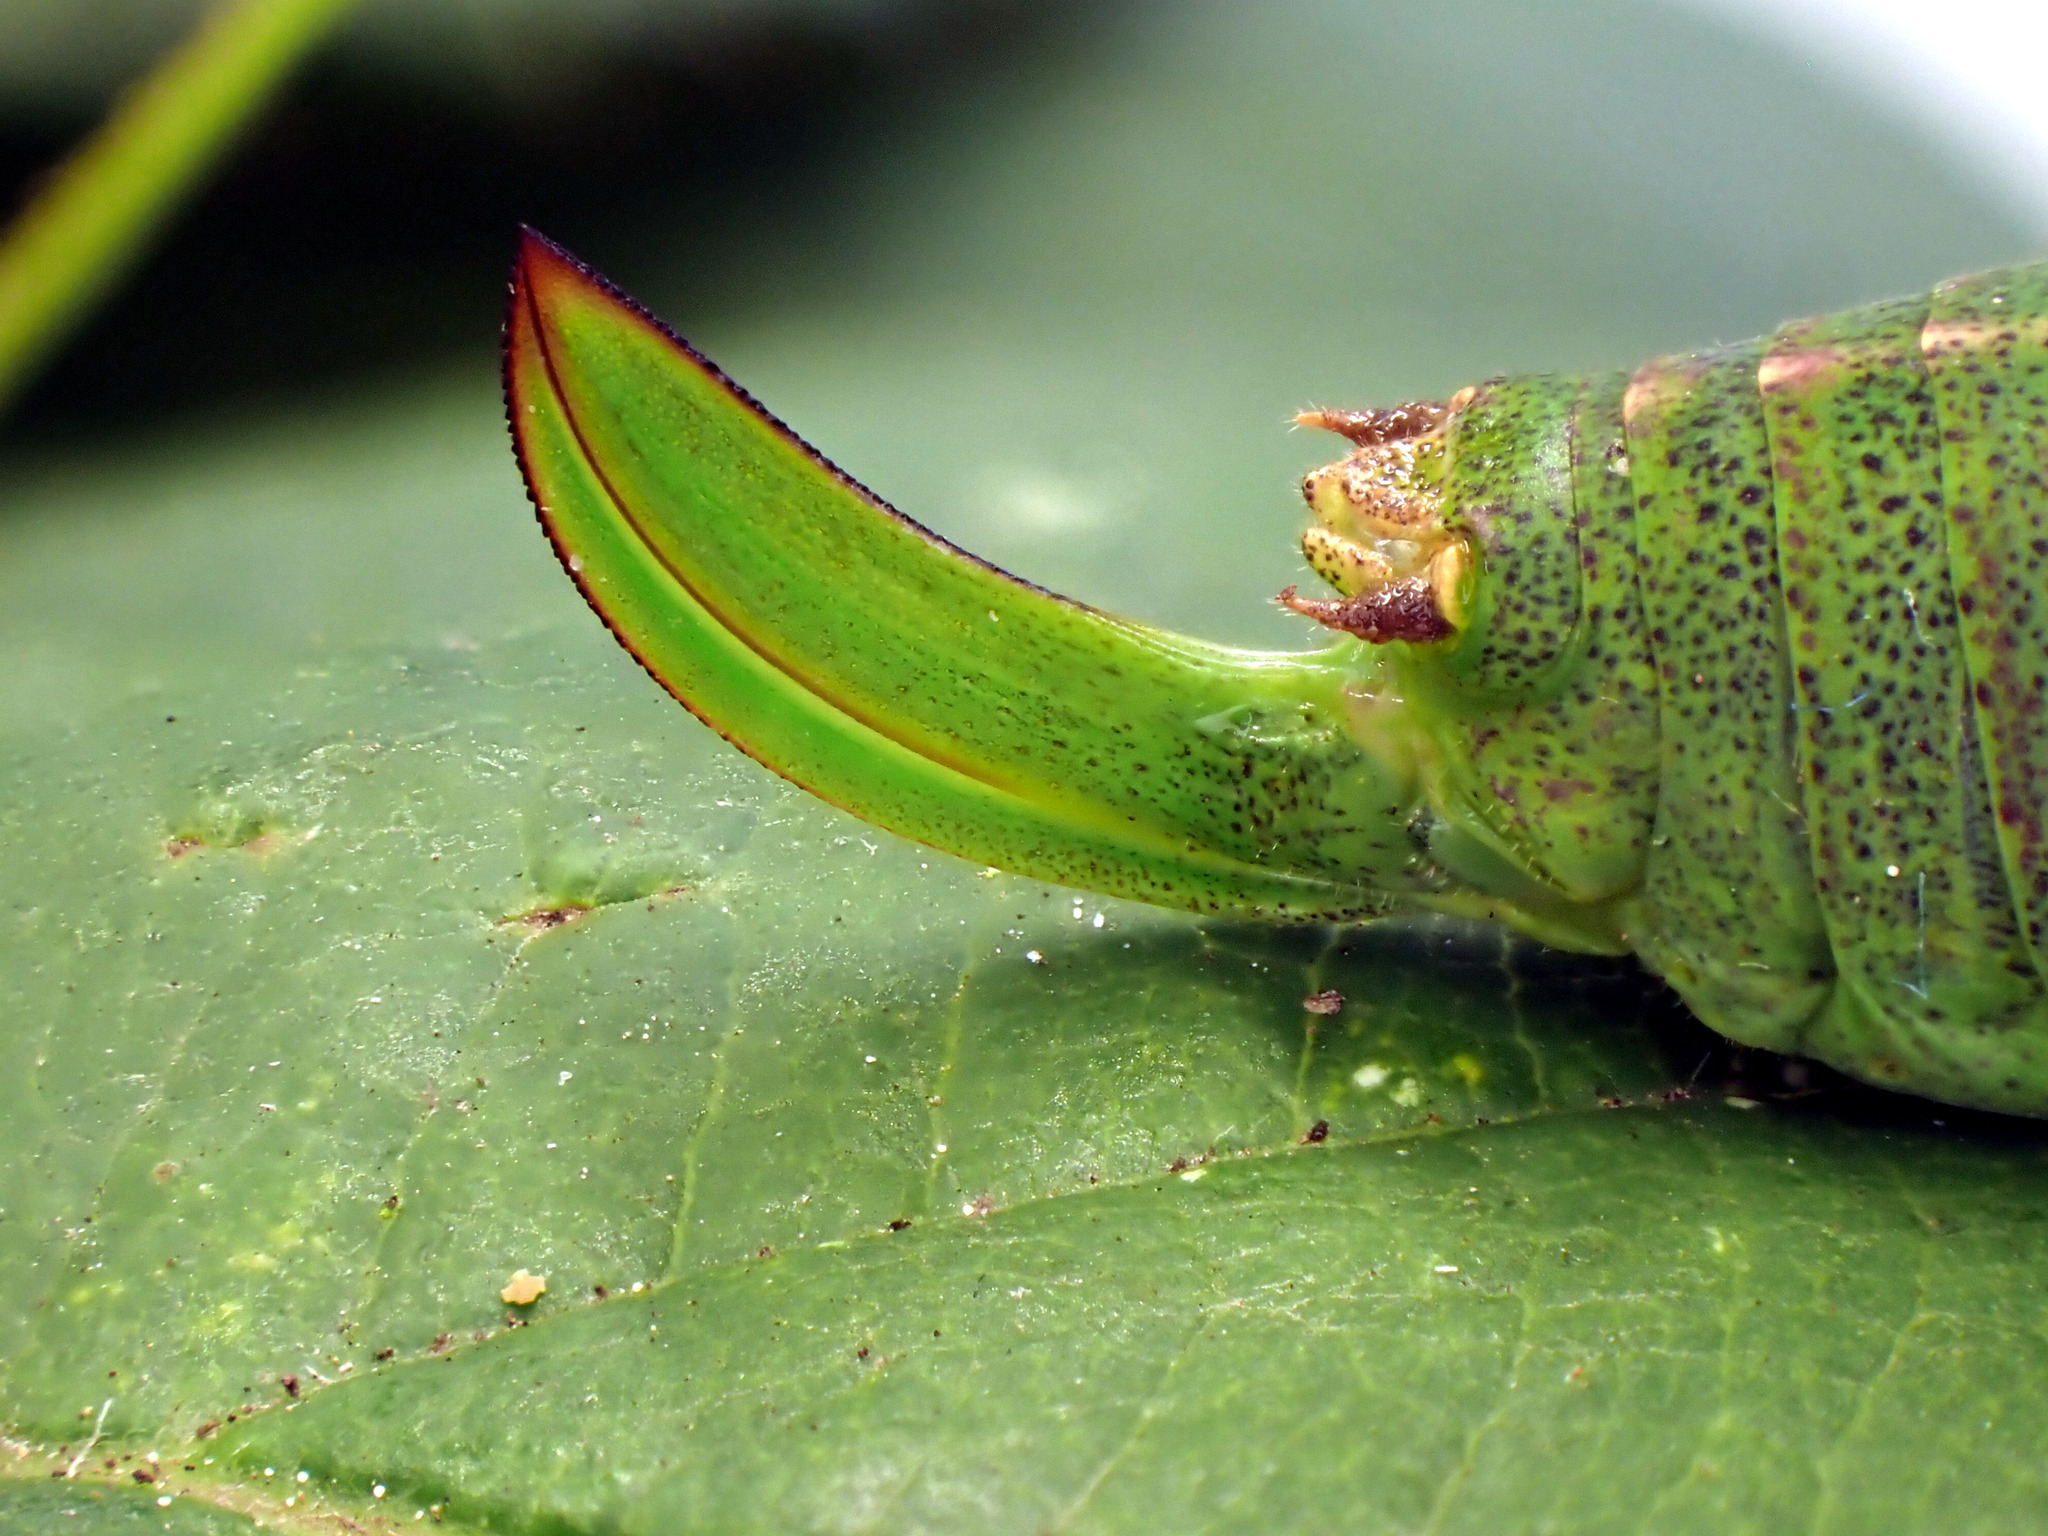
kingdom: Animalia
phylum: Arthropoda
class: Insecta
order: Orthoptera
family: Tettigoniidae
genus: Leptophyes
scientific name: Leptophyes punctatissima
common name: Speckled bush-cricket
